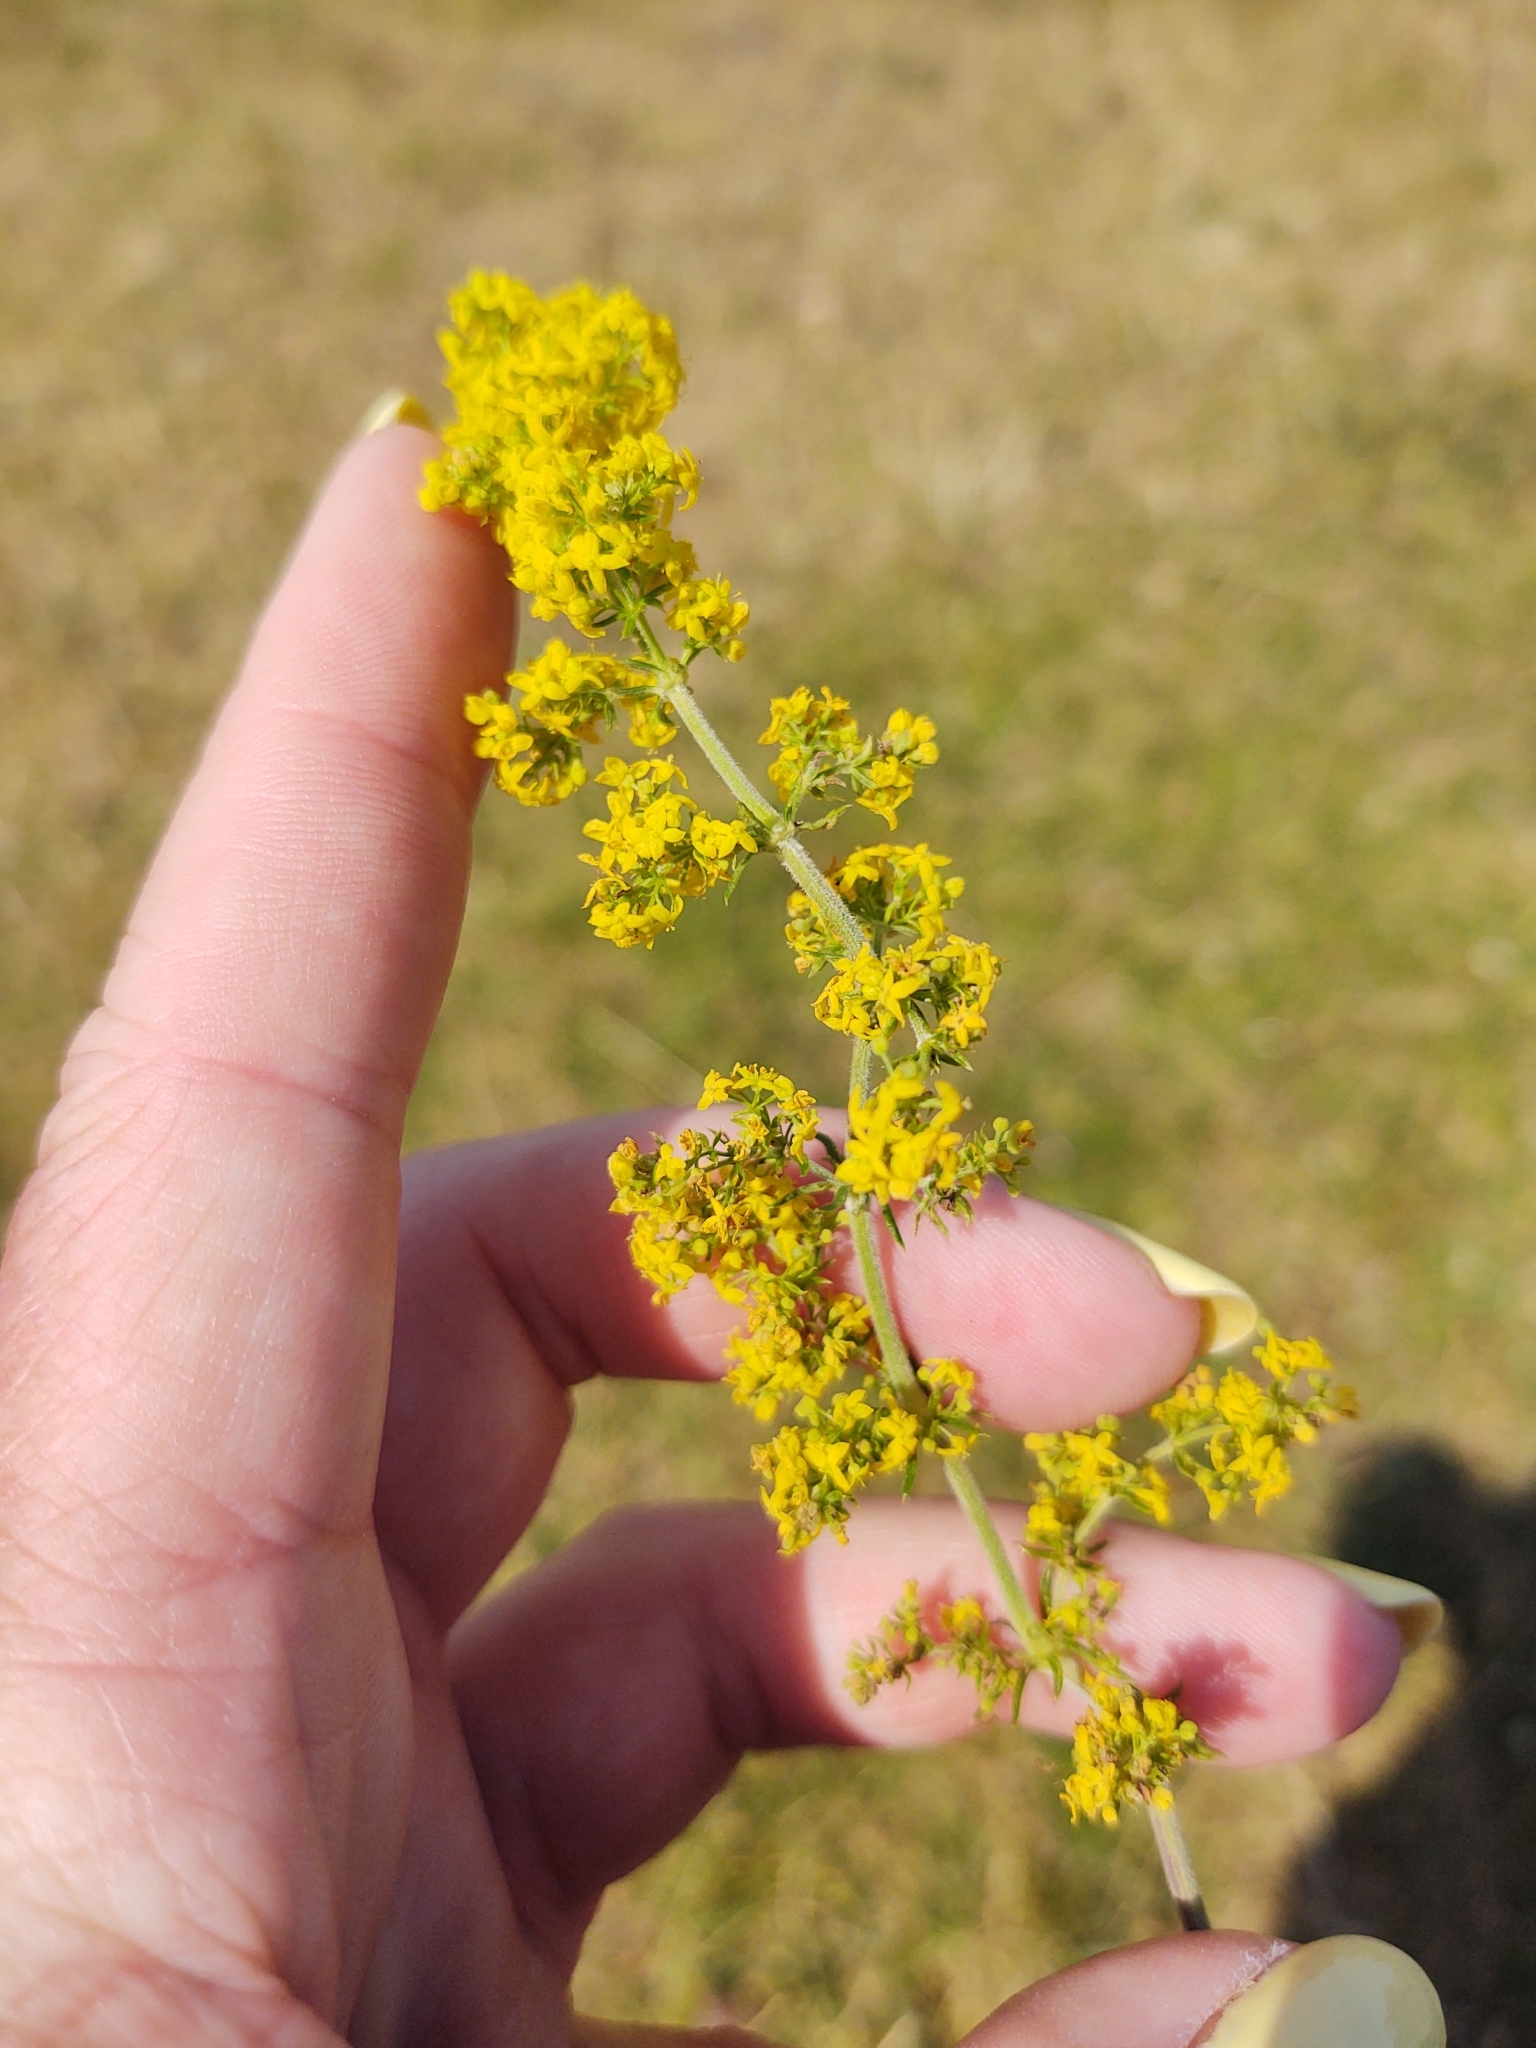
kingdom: Plantae
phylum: Tracheophyta
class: Magnoliopsida
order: Gentianales
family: Rubiaceae
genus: Galium
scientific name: Galium verum
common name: Lady's bedstraw
